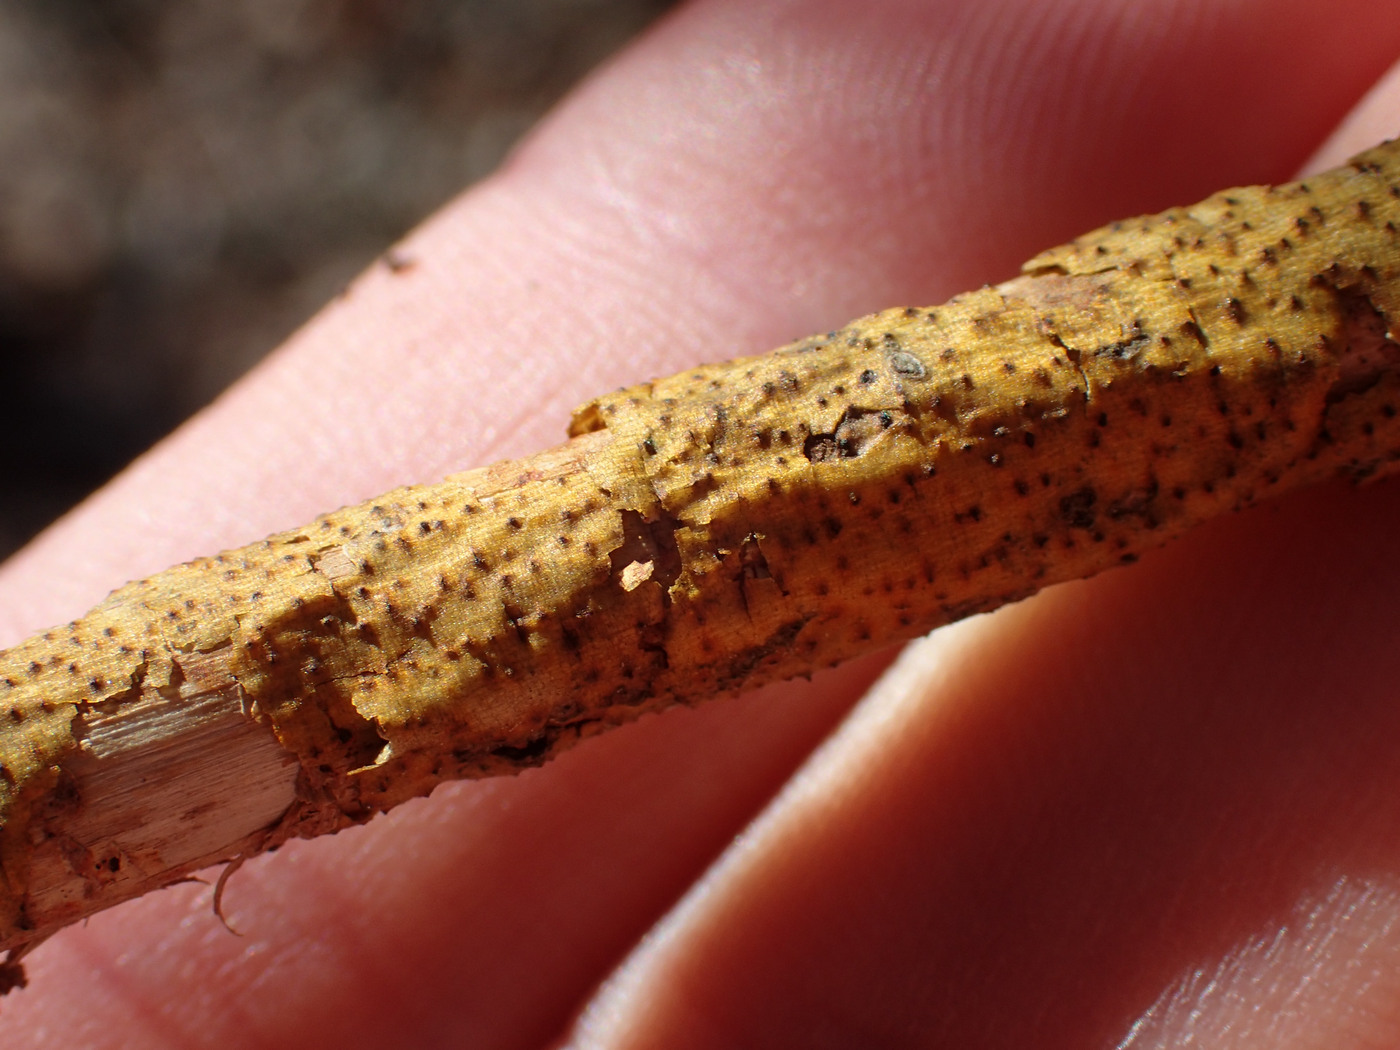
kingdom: Fungi
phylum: Ascomycota
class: Sordariomycetes
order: Diaporthales
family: Cryphonectriaceae
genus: Aurantioporthe
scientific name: Aurantioporthe corni
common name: Dogwood golden canker
